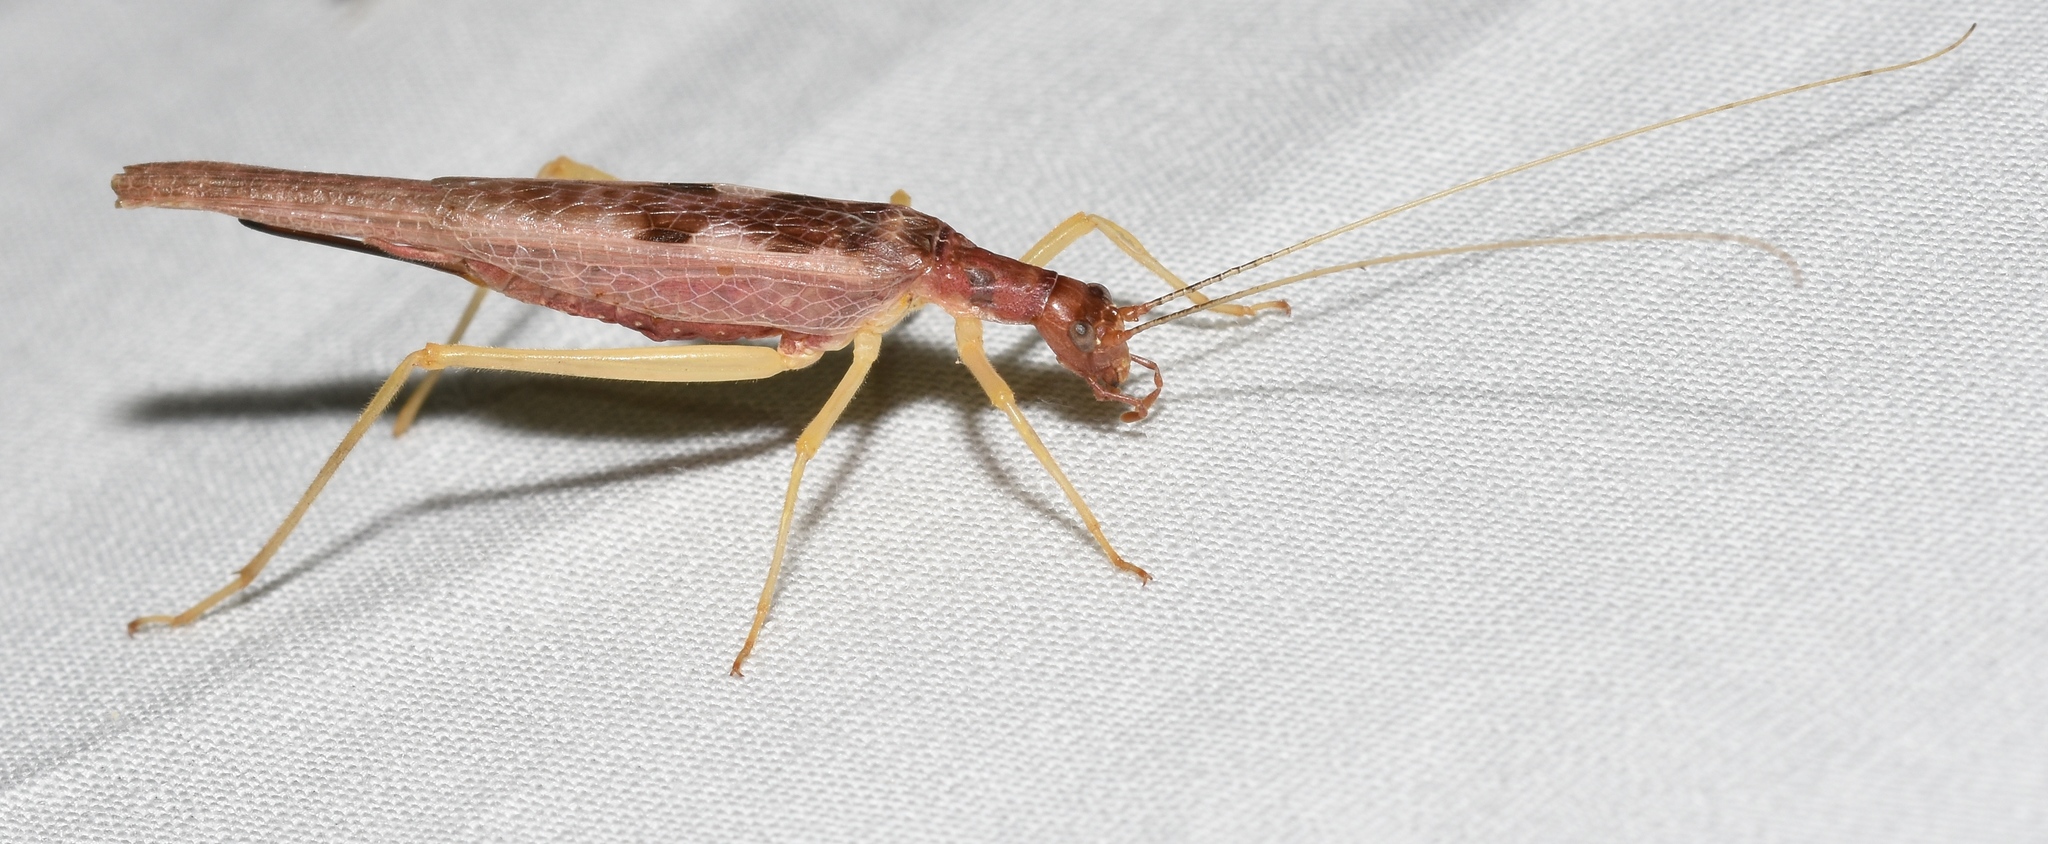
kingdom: Animalia
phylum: Arthropoda
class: Insecta
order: Orthoptera
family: Gryllidae
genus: Neoxabea
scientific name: Neoxabea bipunctata
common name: Two-spotted tree cricket
